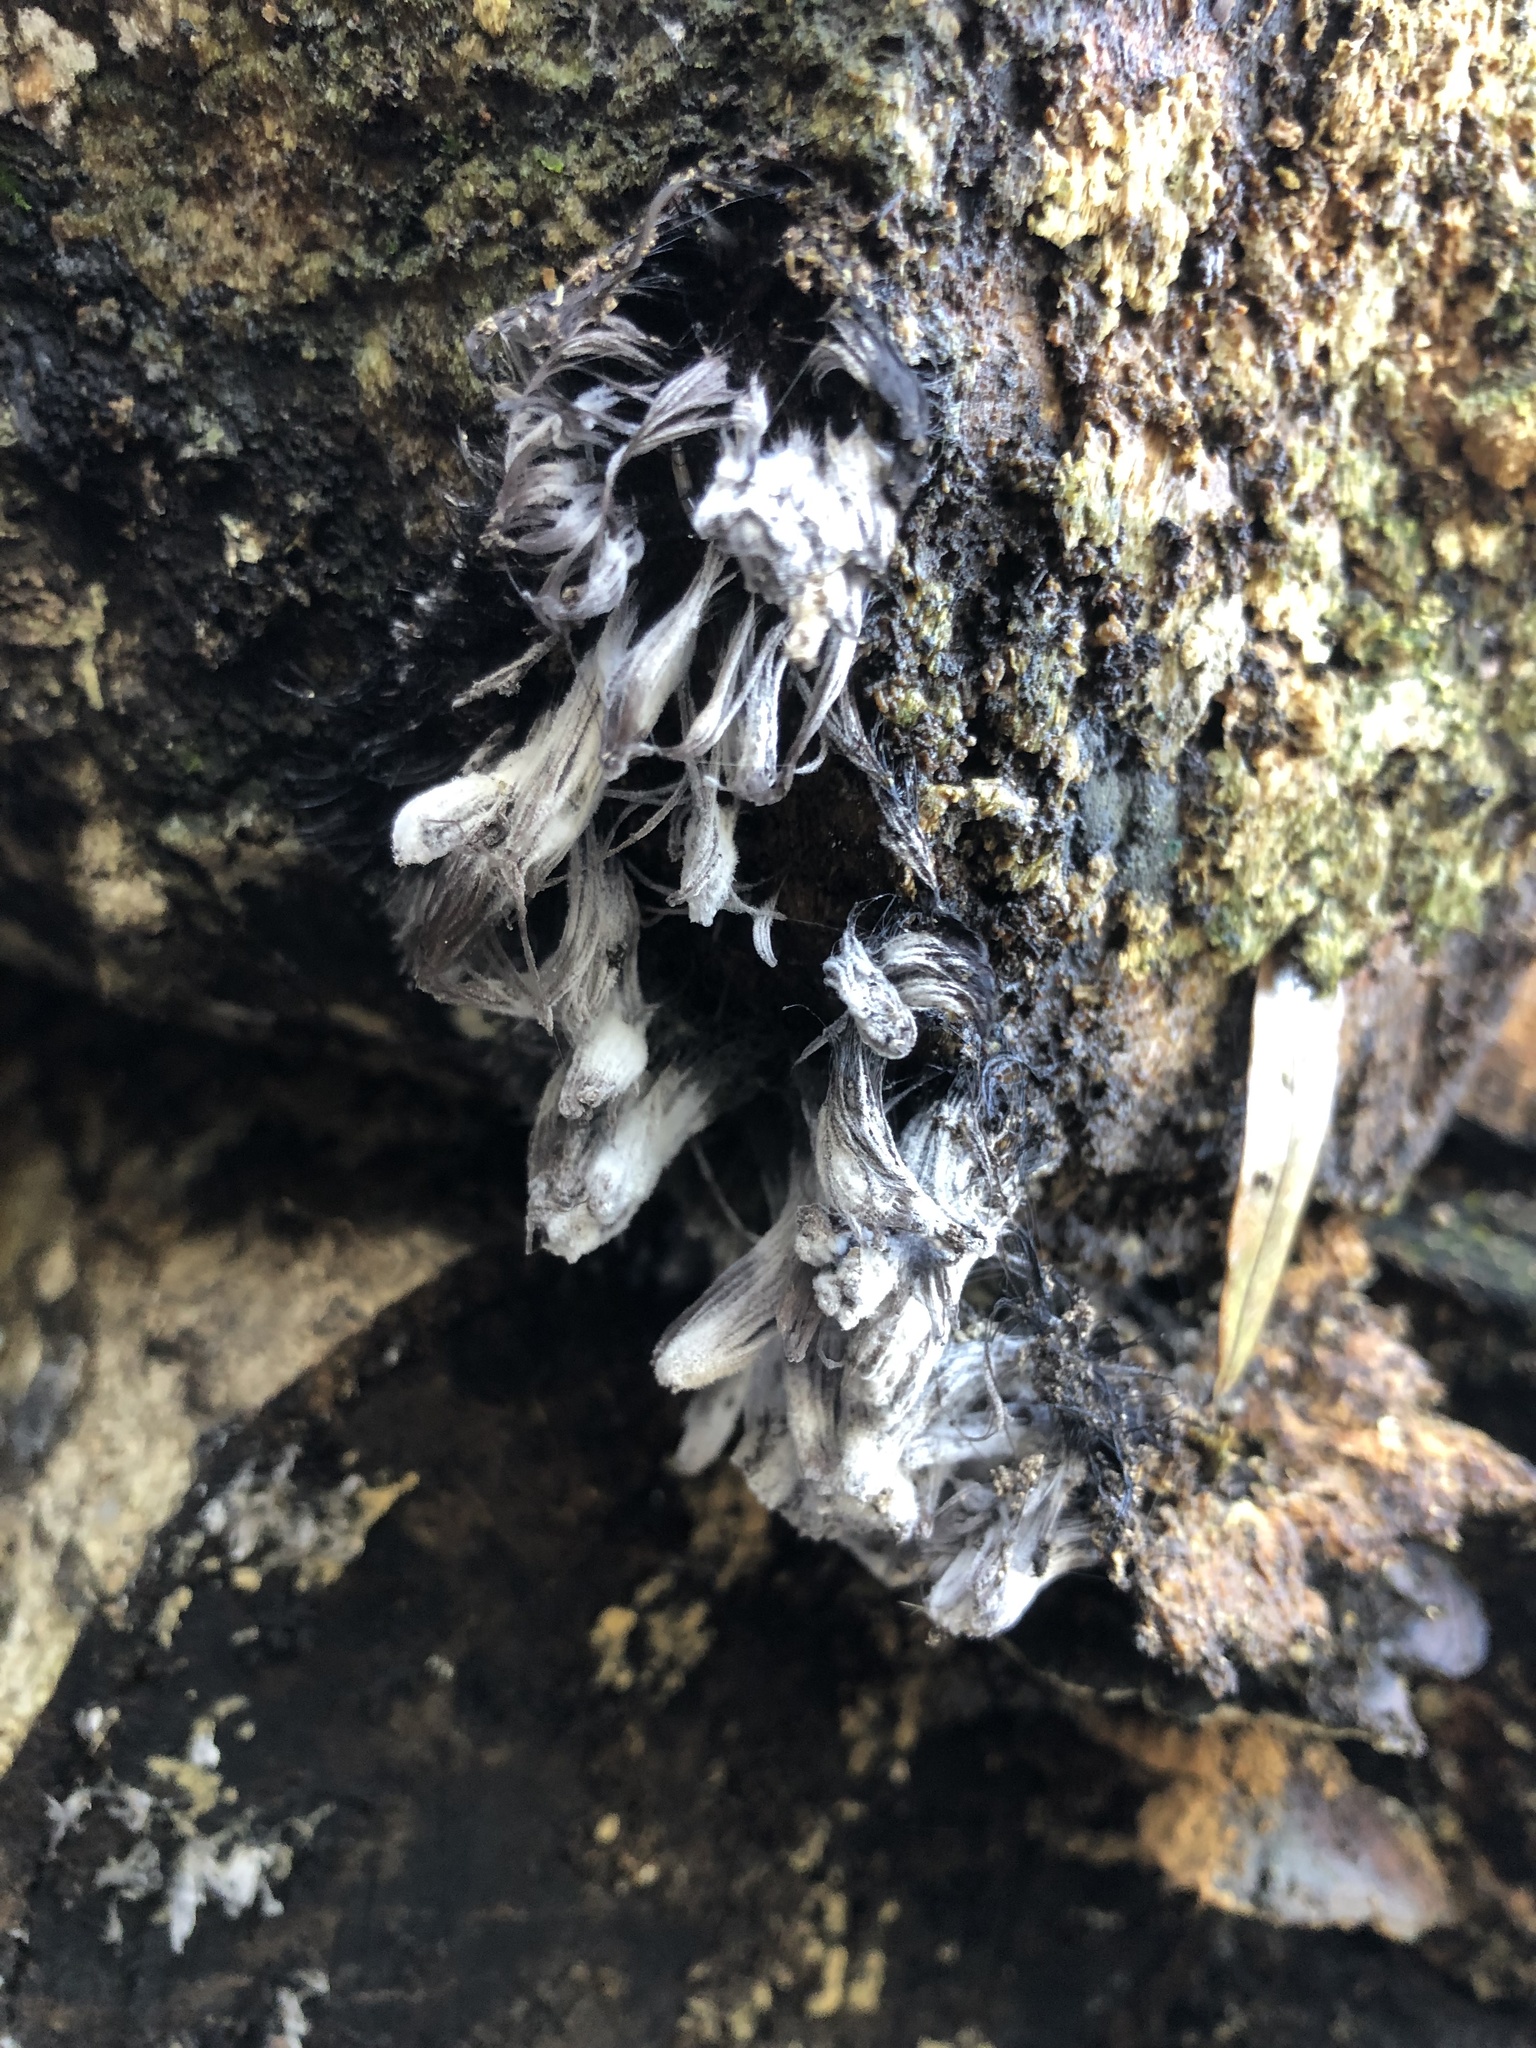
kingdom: Protozoa
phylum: Mycetozoa
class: Myxomycetes
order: Stemonitidales
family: Stemonitidaceae
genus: Stemonitis
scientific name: Stemonitis splendens
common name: Chocolate tube slime
